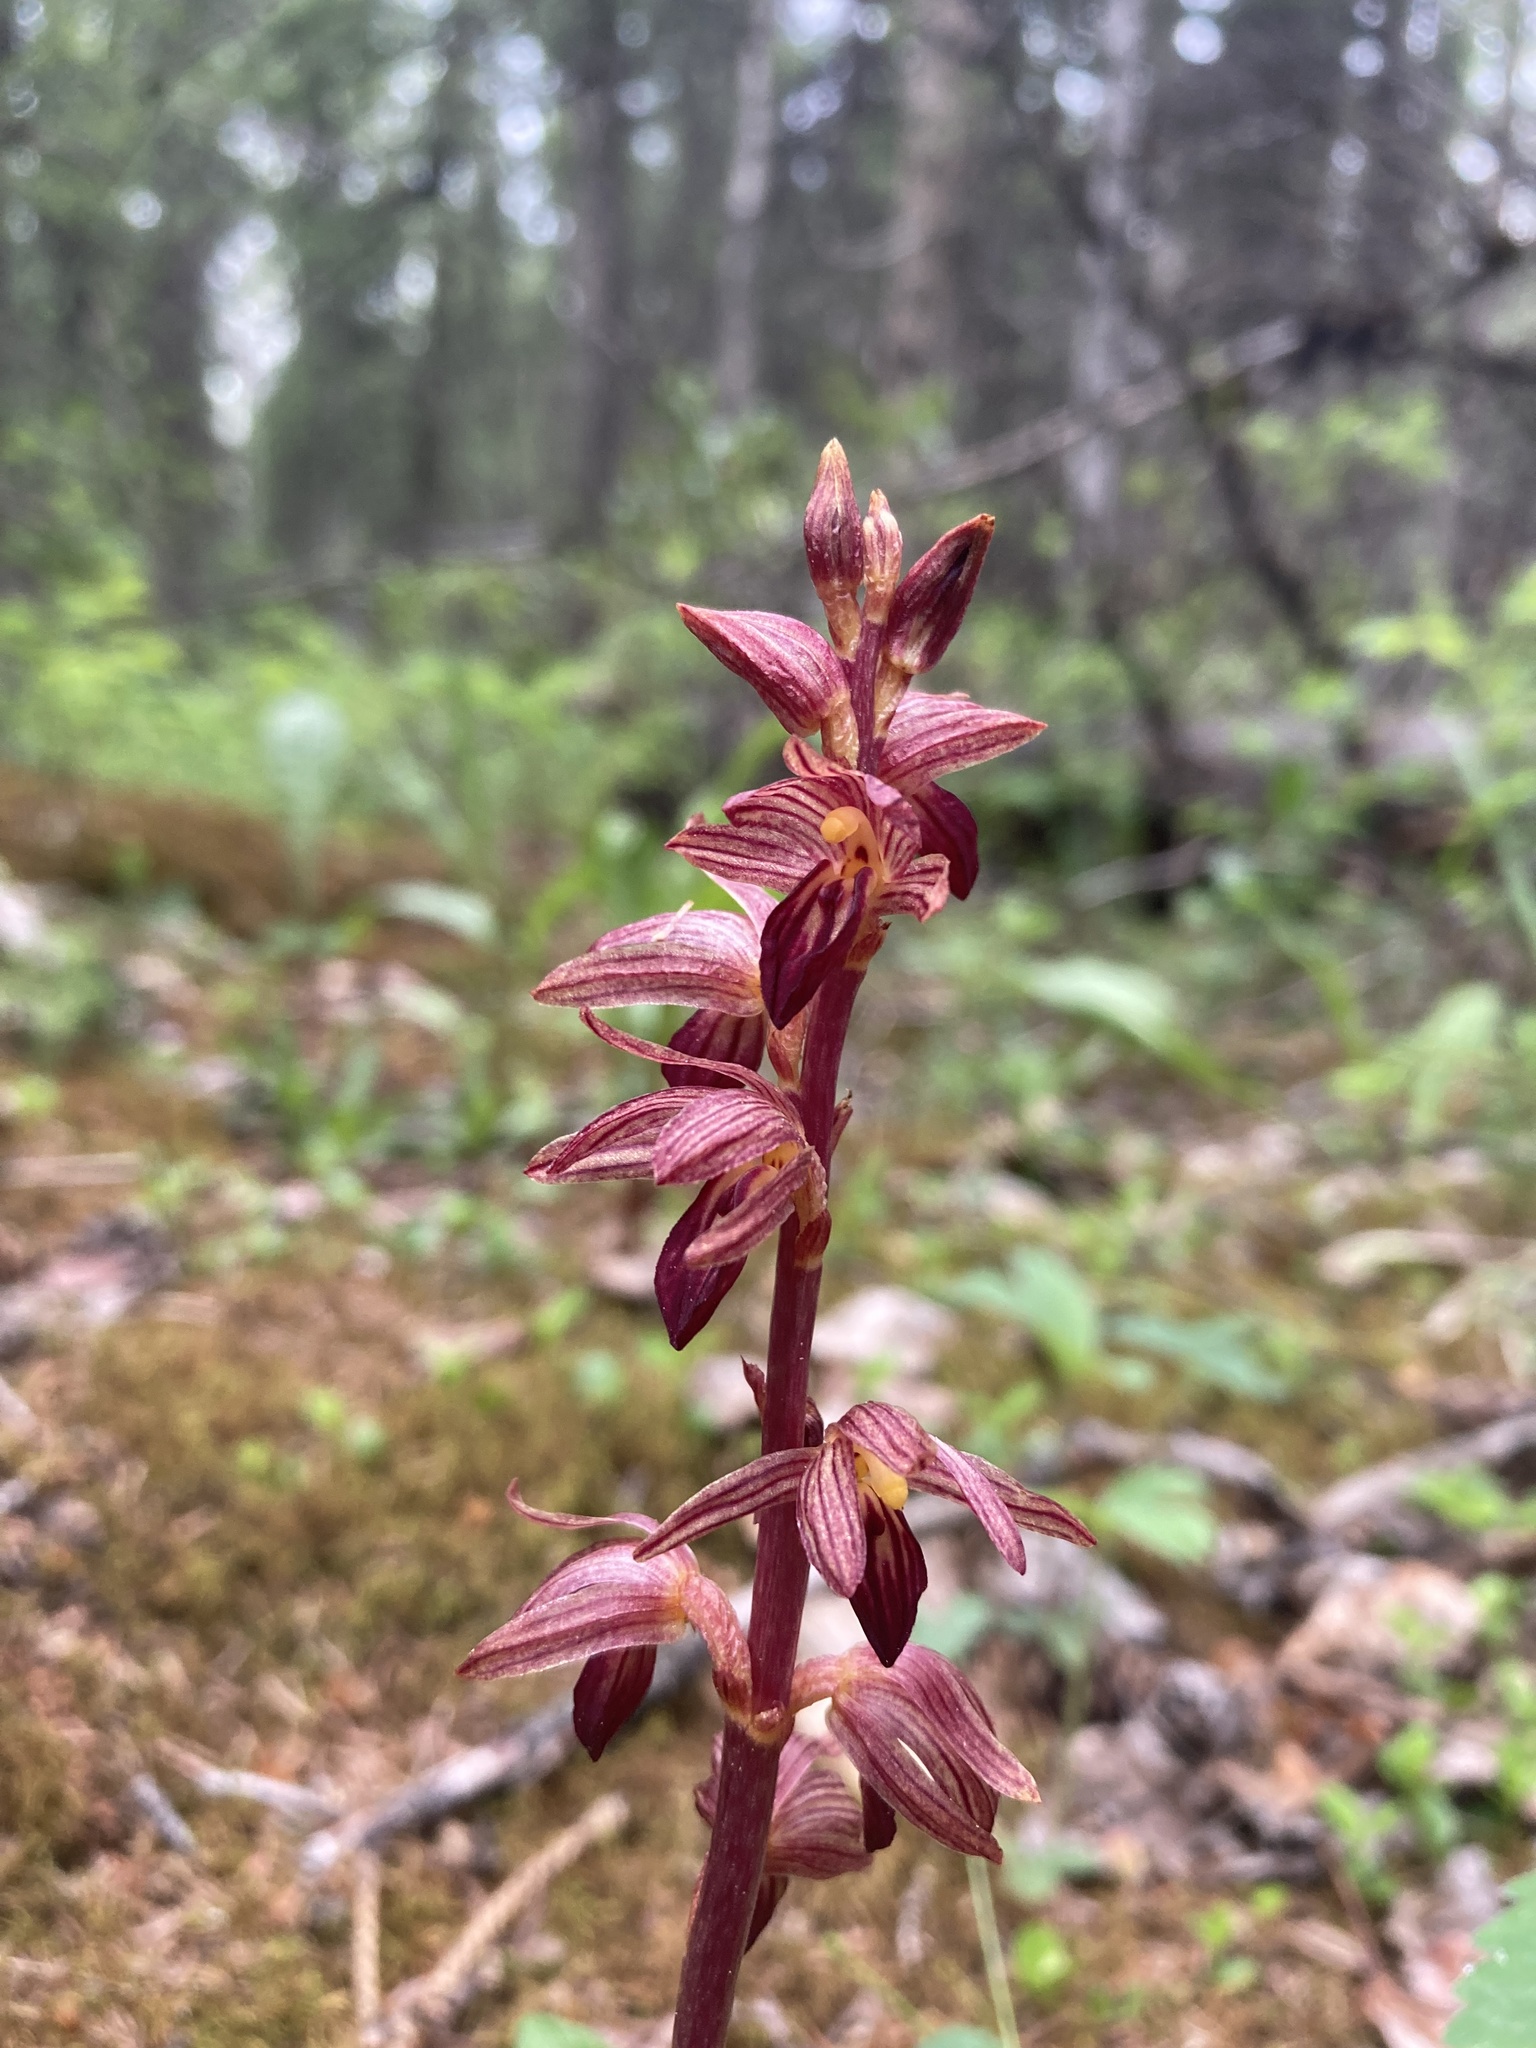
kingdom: Plantae
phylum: Tracheophyta
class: Liliopsida
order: Asparagales
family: Orchidaceae
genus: Corallorhiza
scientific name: Corallorhiza striata
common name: Hooded coralroot
